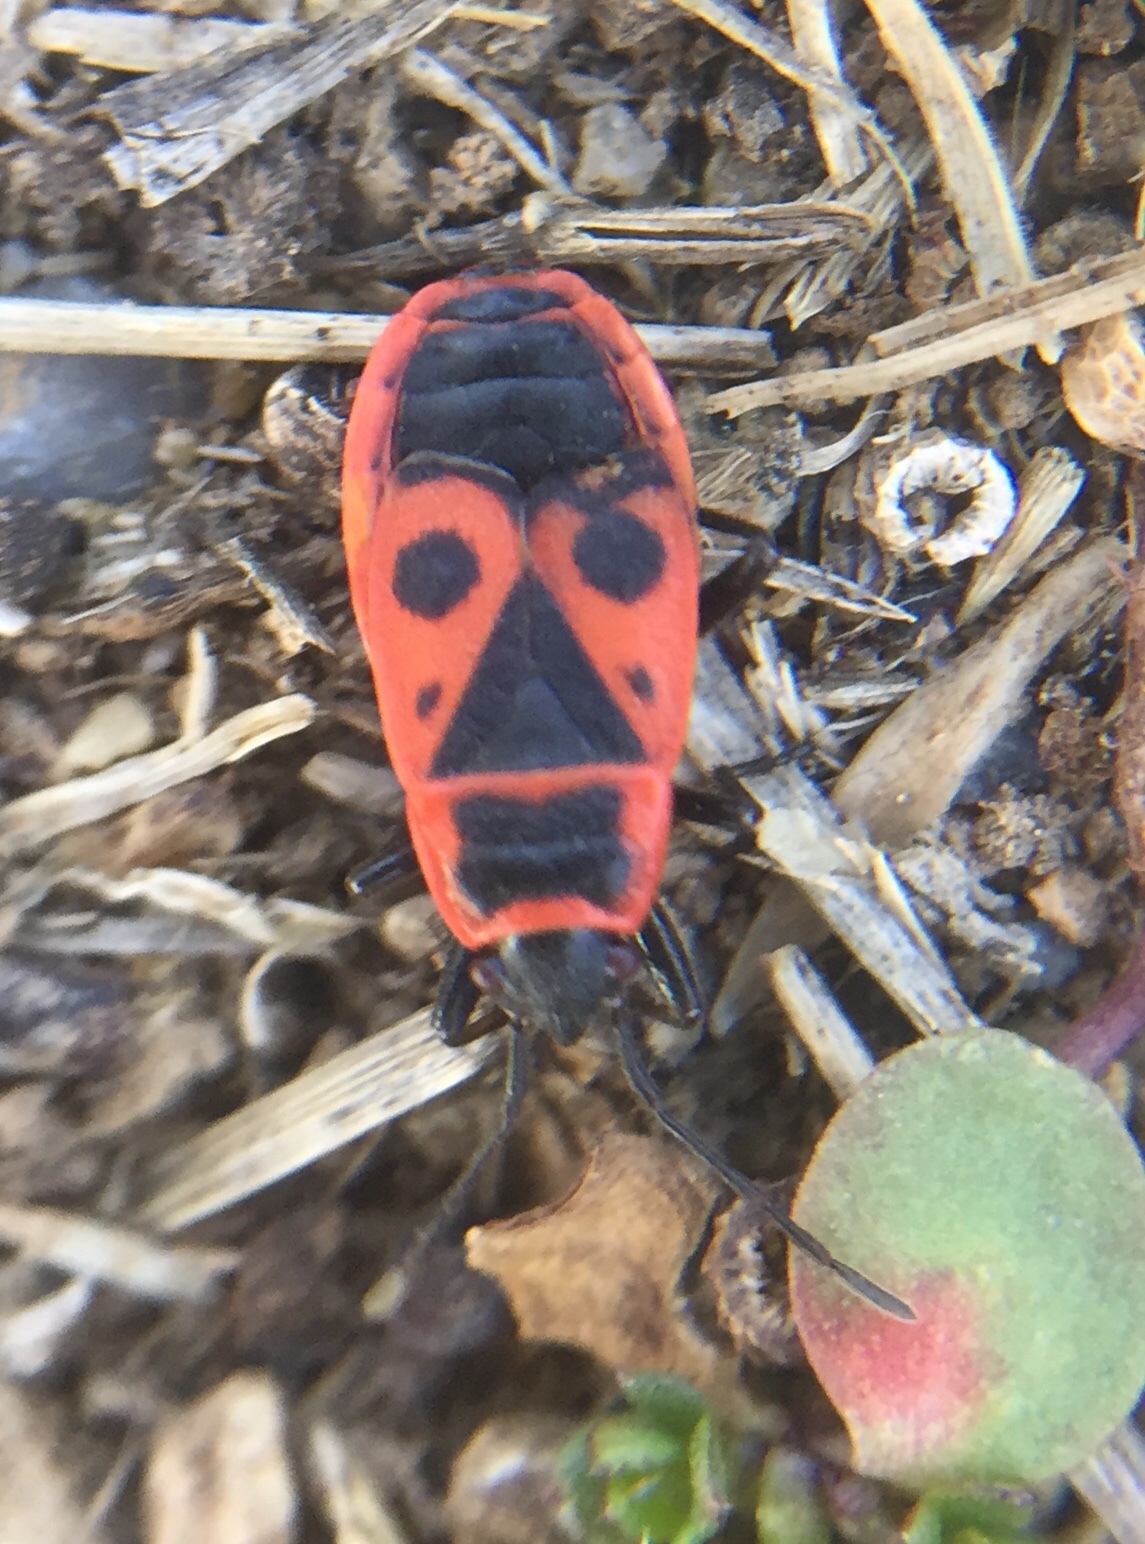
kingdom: Animalia
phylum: Arthropoda
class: Insecta
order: Hemiptera
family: Pyrrhocoridae
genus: Pyrrhocoris
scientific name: Pyrrhocoris apterus
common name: Firebug
